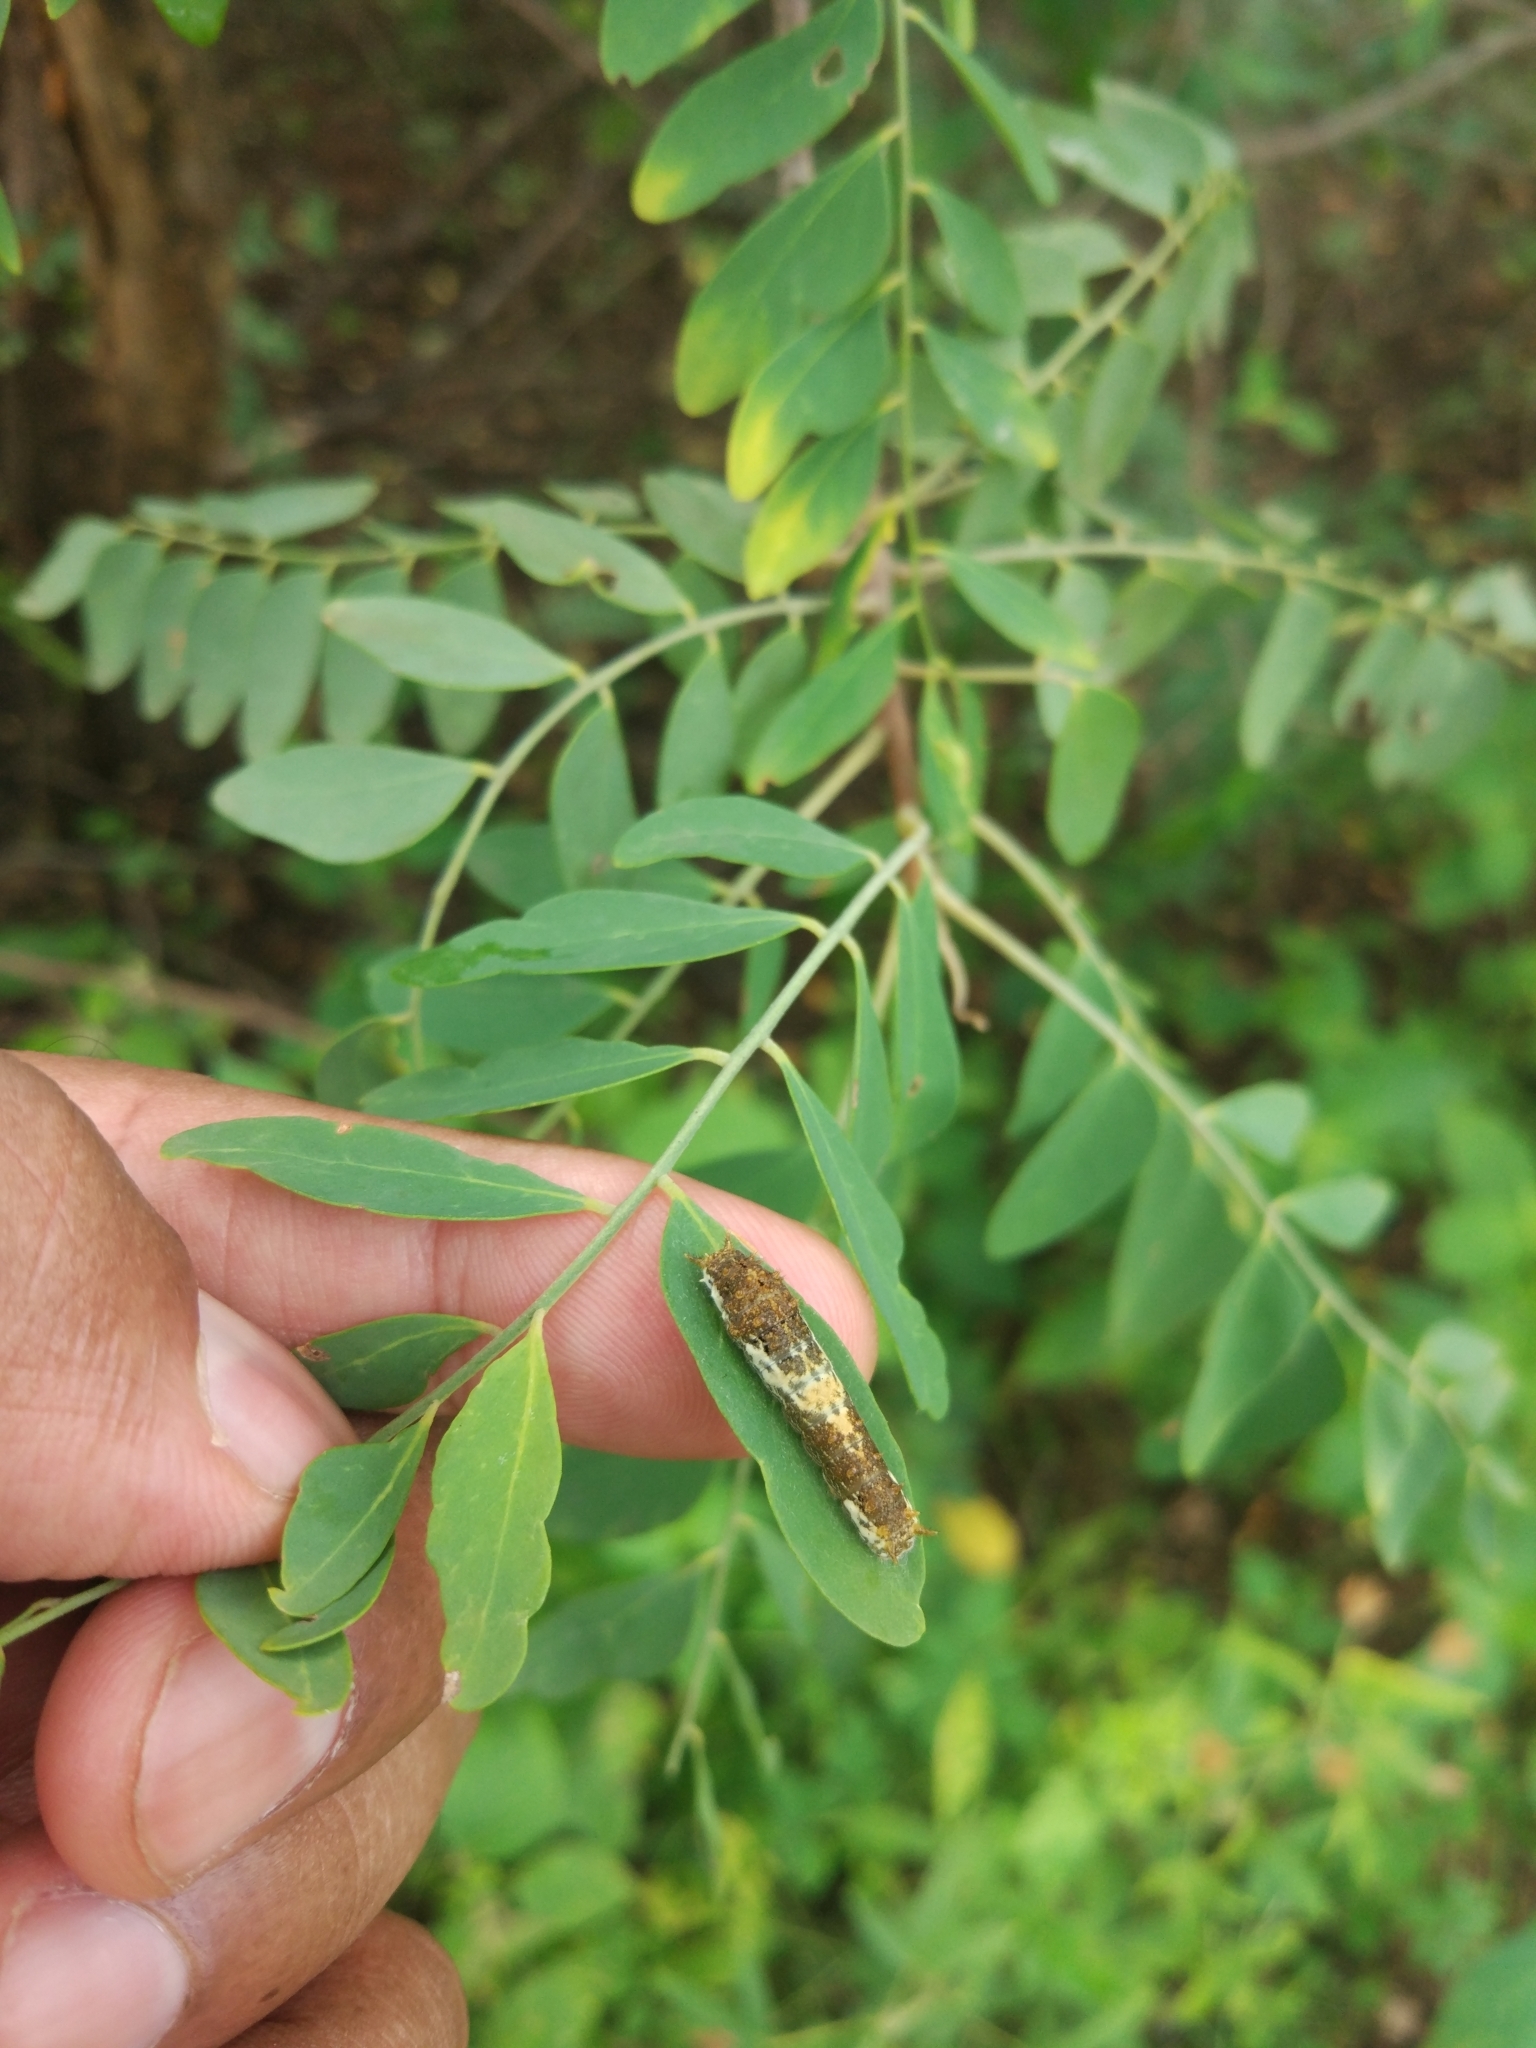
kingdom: Animalia
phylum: Arthropoda
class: Insecta
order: Lepidoptera
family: Papilionidae
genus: Papilio
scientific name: Papilio demoleus
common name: Lime butterfly
